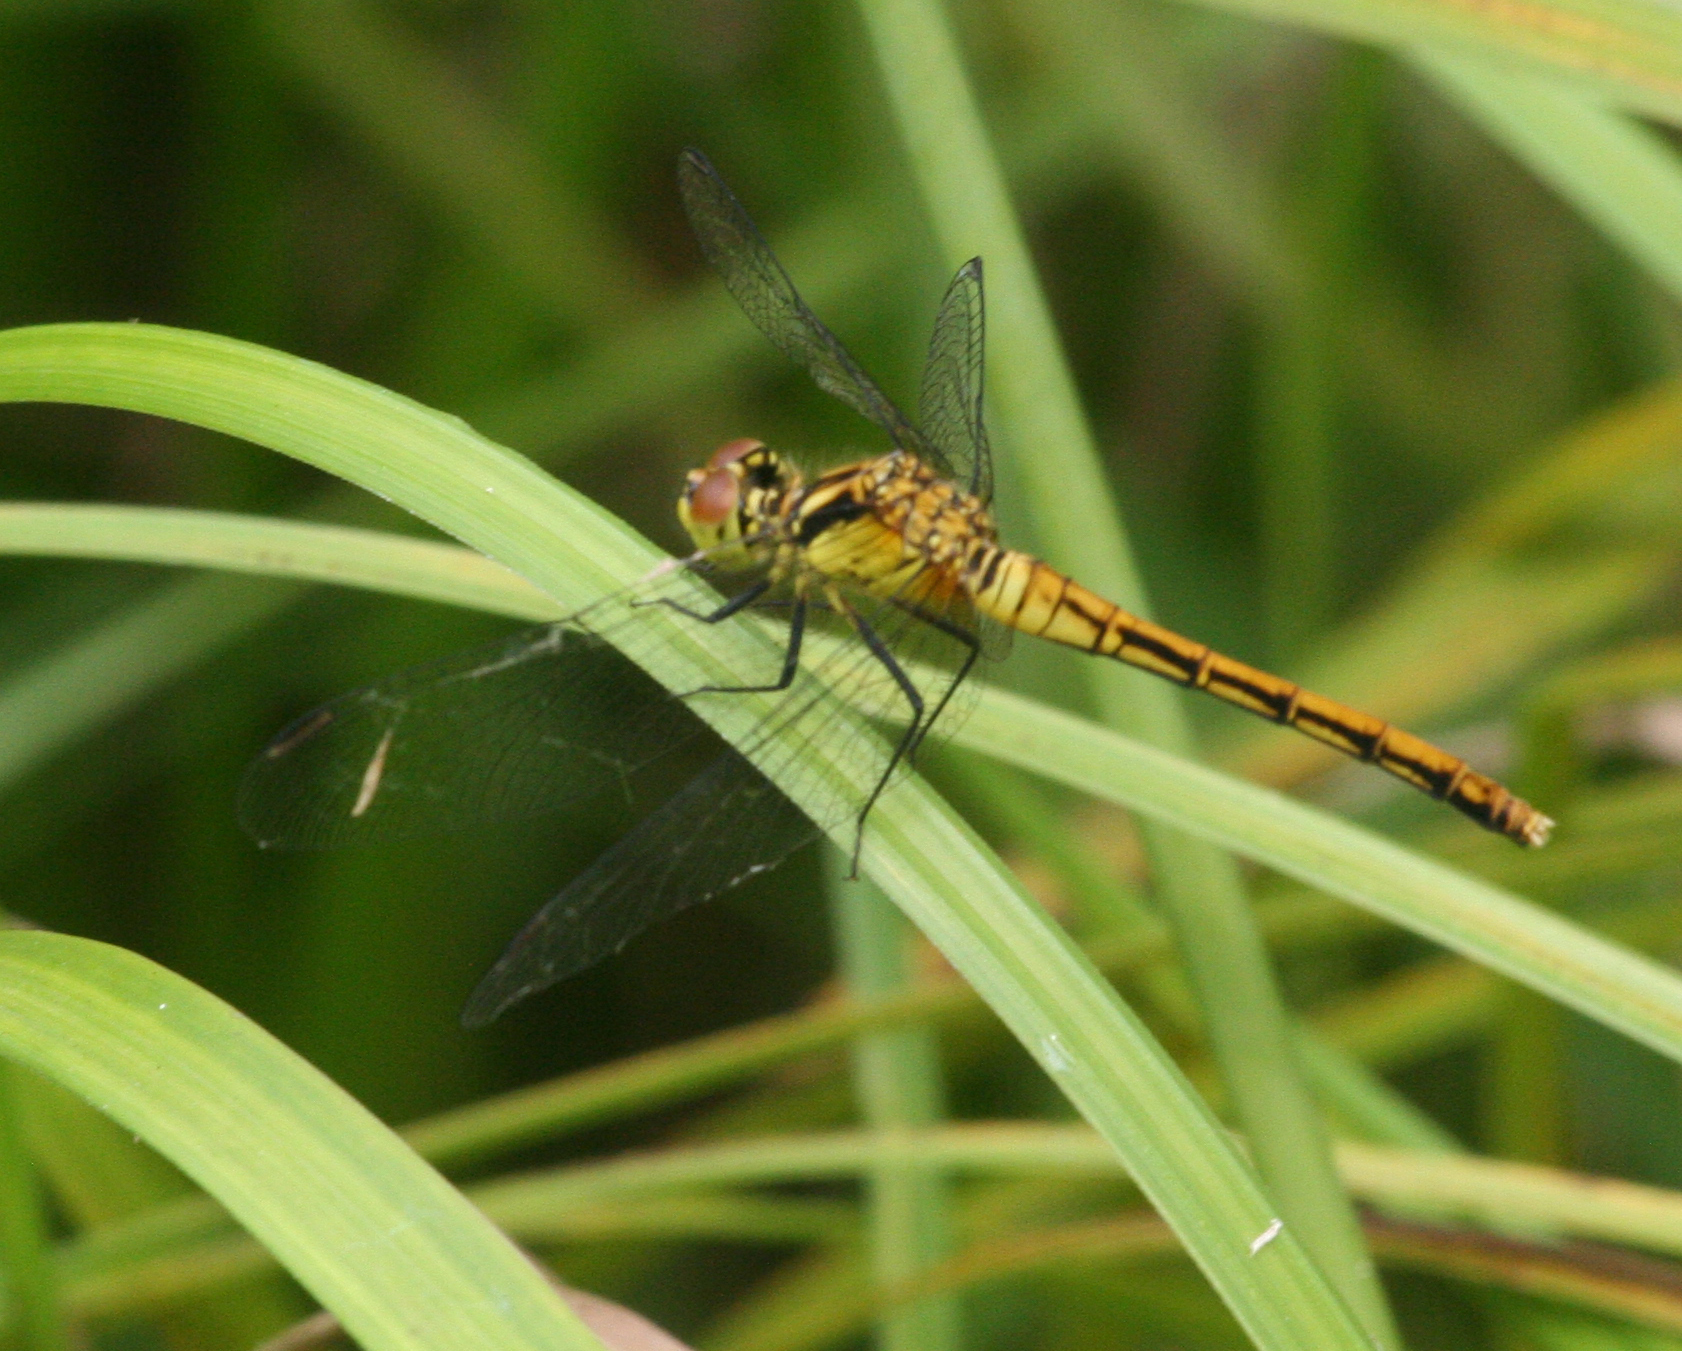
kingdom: Animalia
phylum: Arthropoda
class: Insecta
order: Odonata
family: Libellulidae
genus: Sympetrum
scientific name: Sympetrum eroticum
